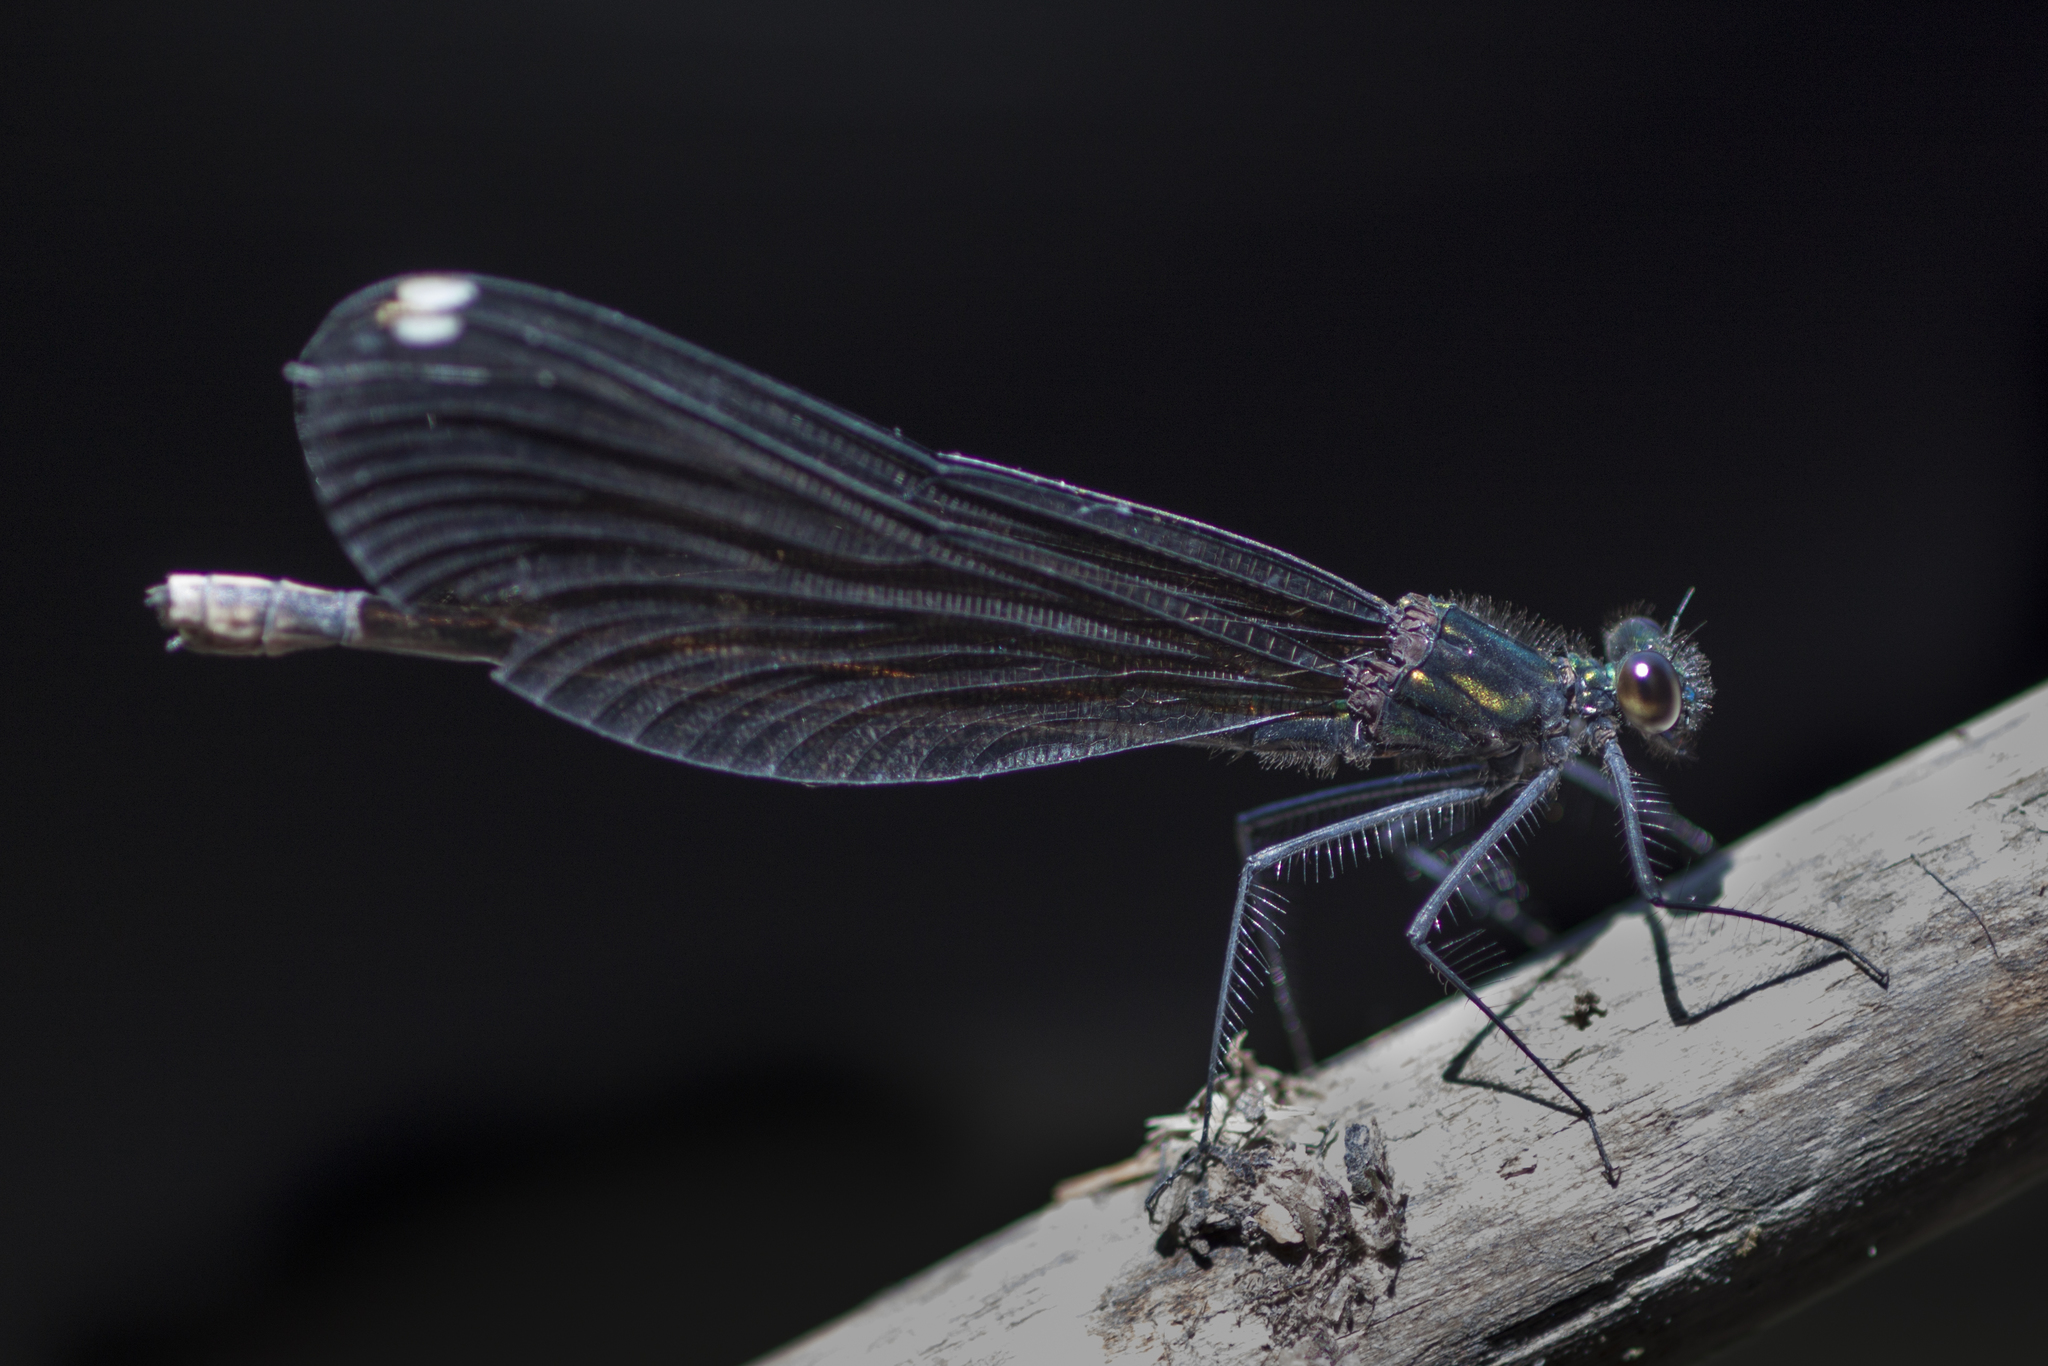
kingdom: Animalia
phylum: Arthropoda
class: Insecta
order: Odonata
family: Calopterygidae
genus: Calopteryx
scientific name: Calopteryx maculata
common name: Ebony jewelwing
